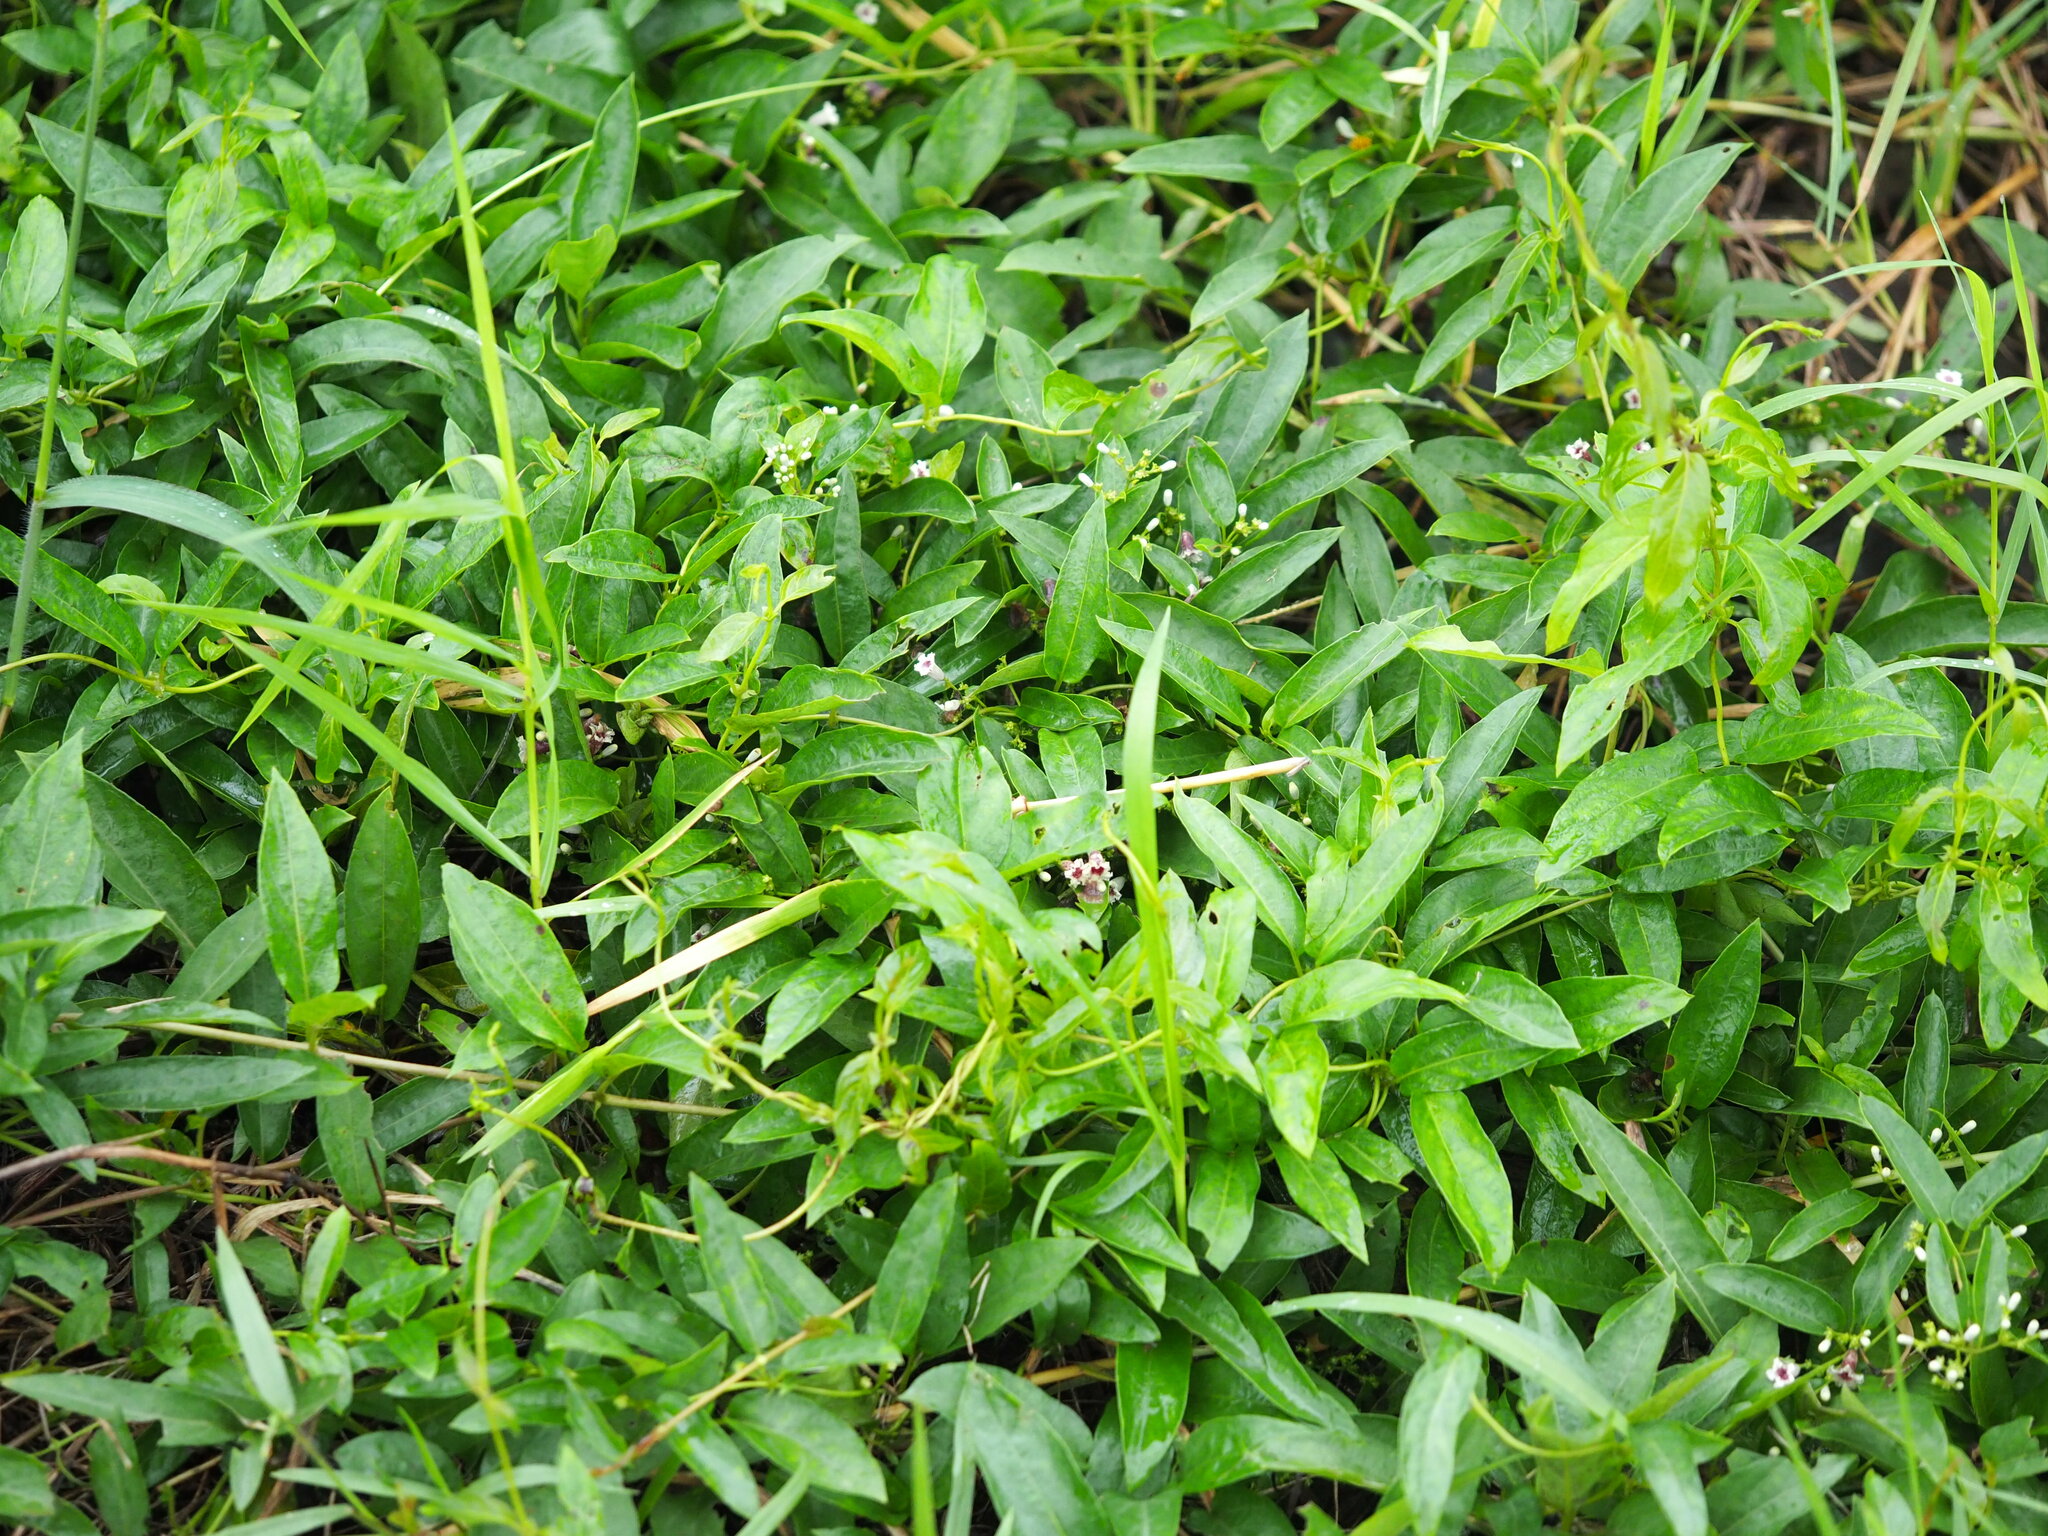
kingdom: Plantae
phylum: Tracheophyta
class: Magnoliopsida
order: Gentianales
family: Rubiaceae
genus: Paederia
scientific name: Paederia foetida
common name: Stinkvine
